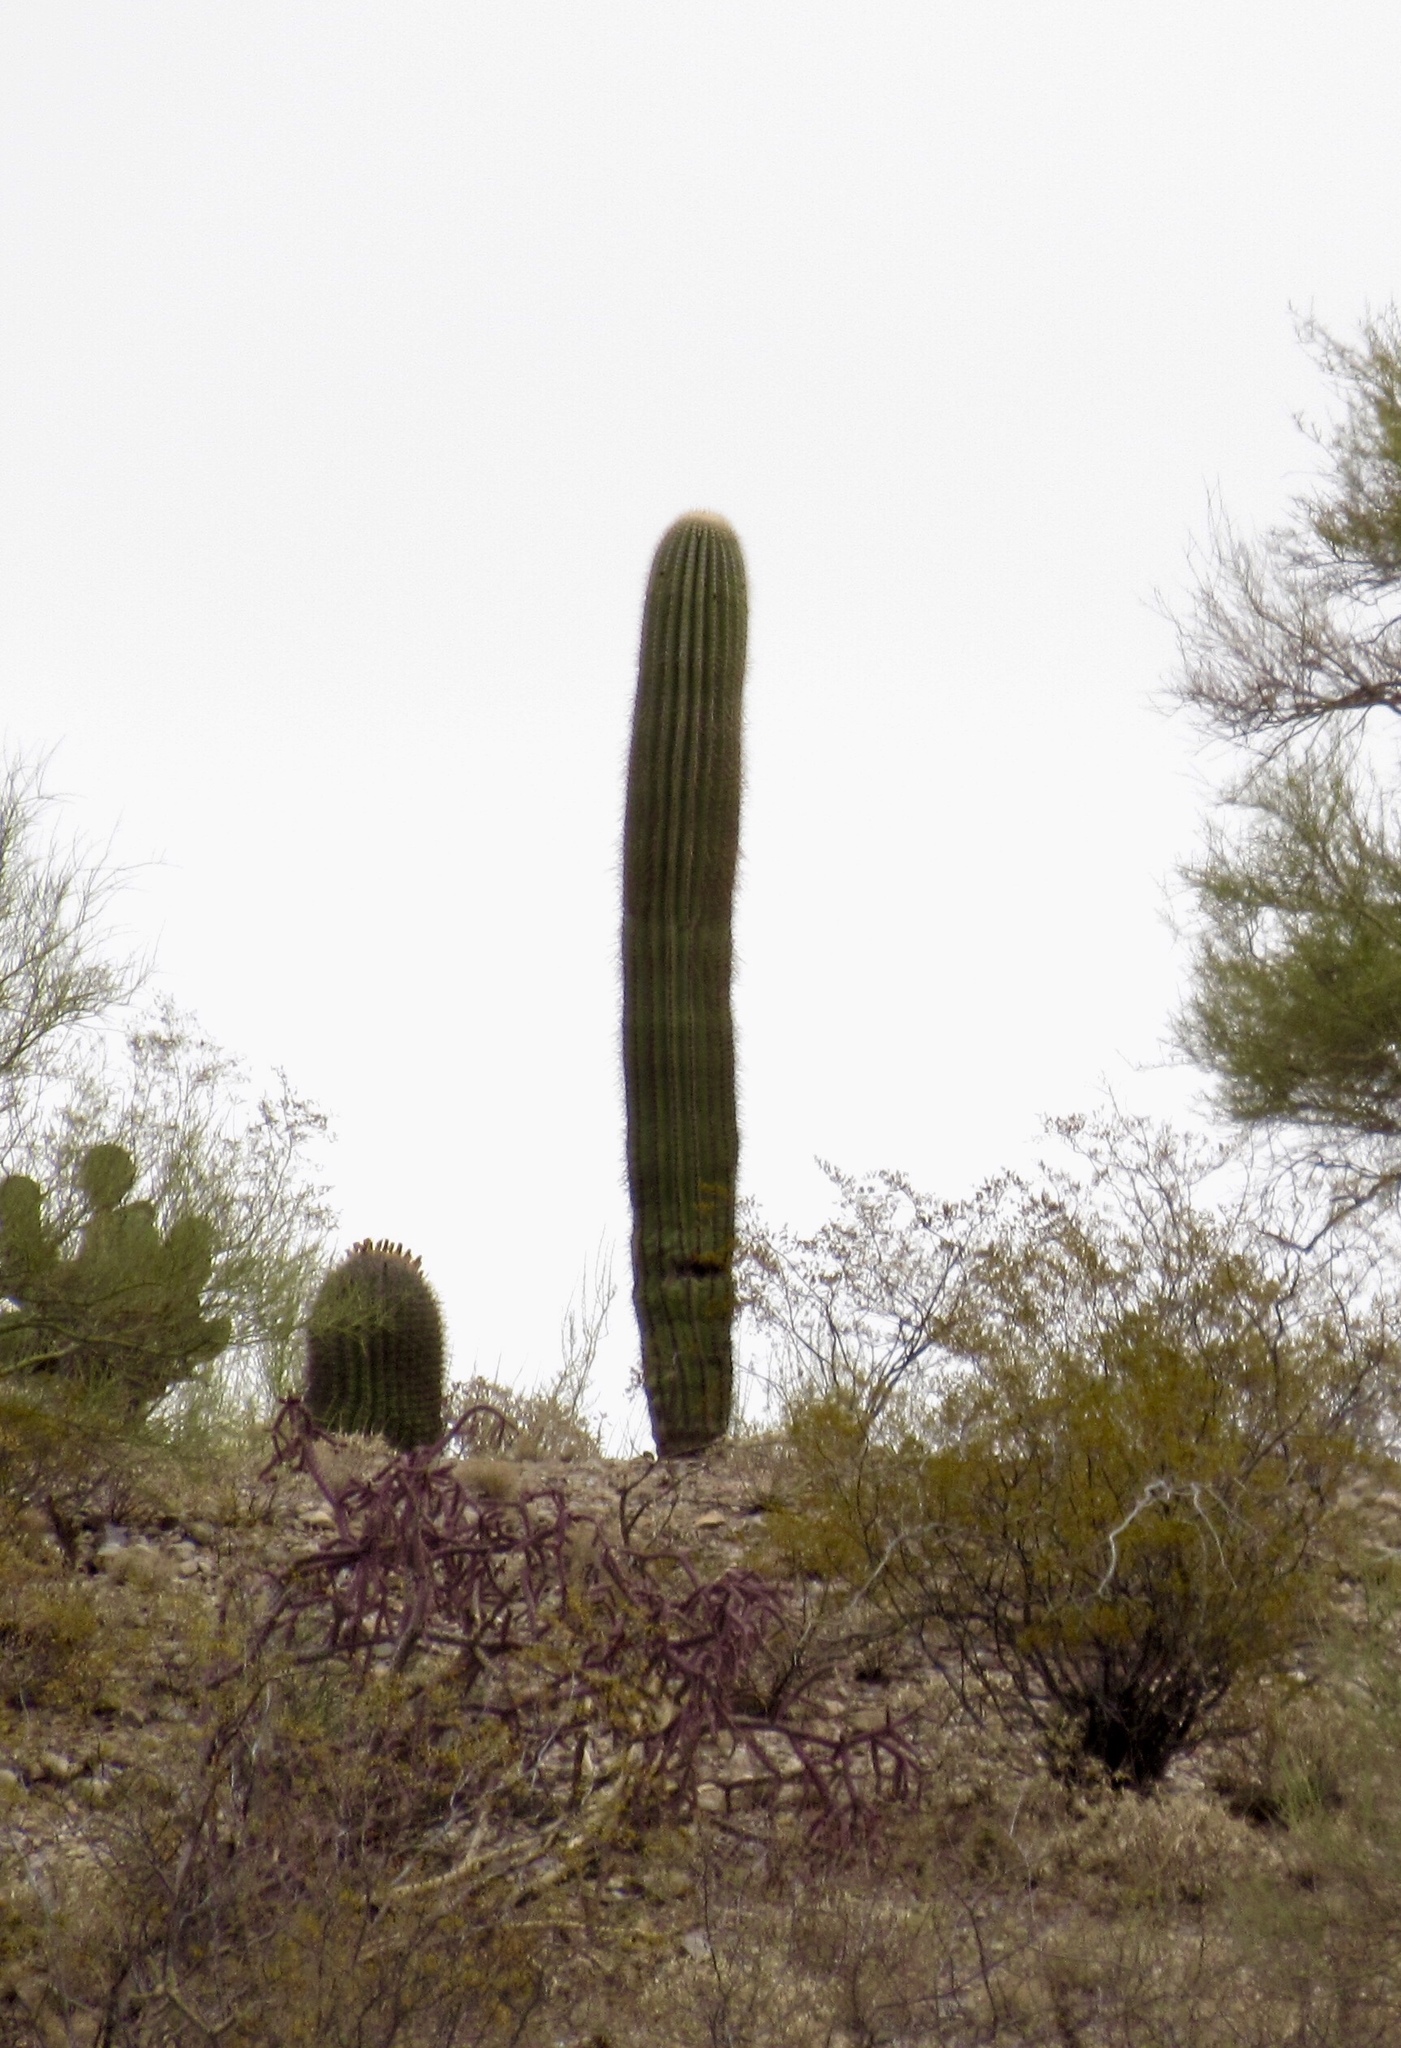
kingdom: Plantae
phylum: Tracheophyta
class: Magnoliopsida
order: Caryophyllales
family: Cactaceae
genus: Carnegiea
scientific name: Carnegiea gigantea
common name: Saguaro
